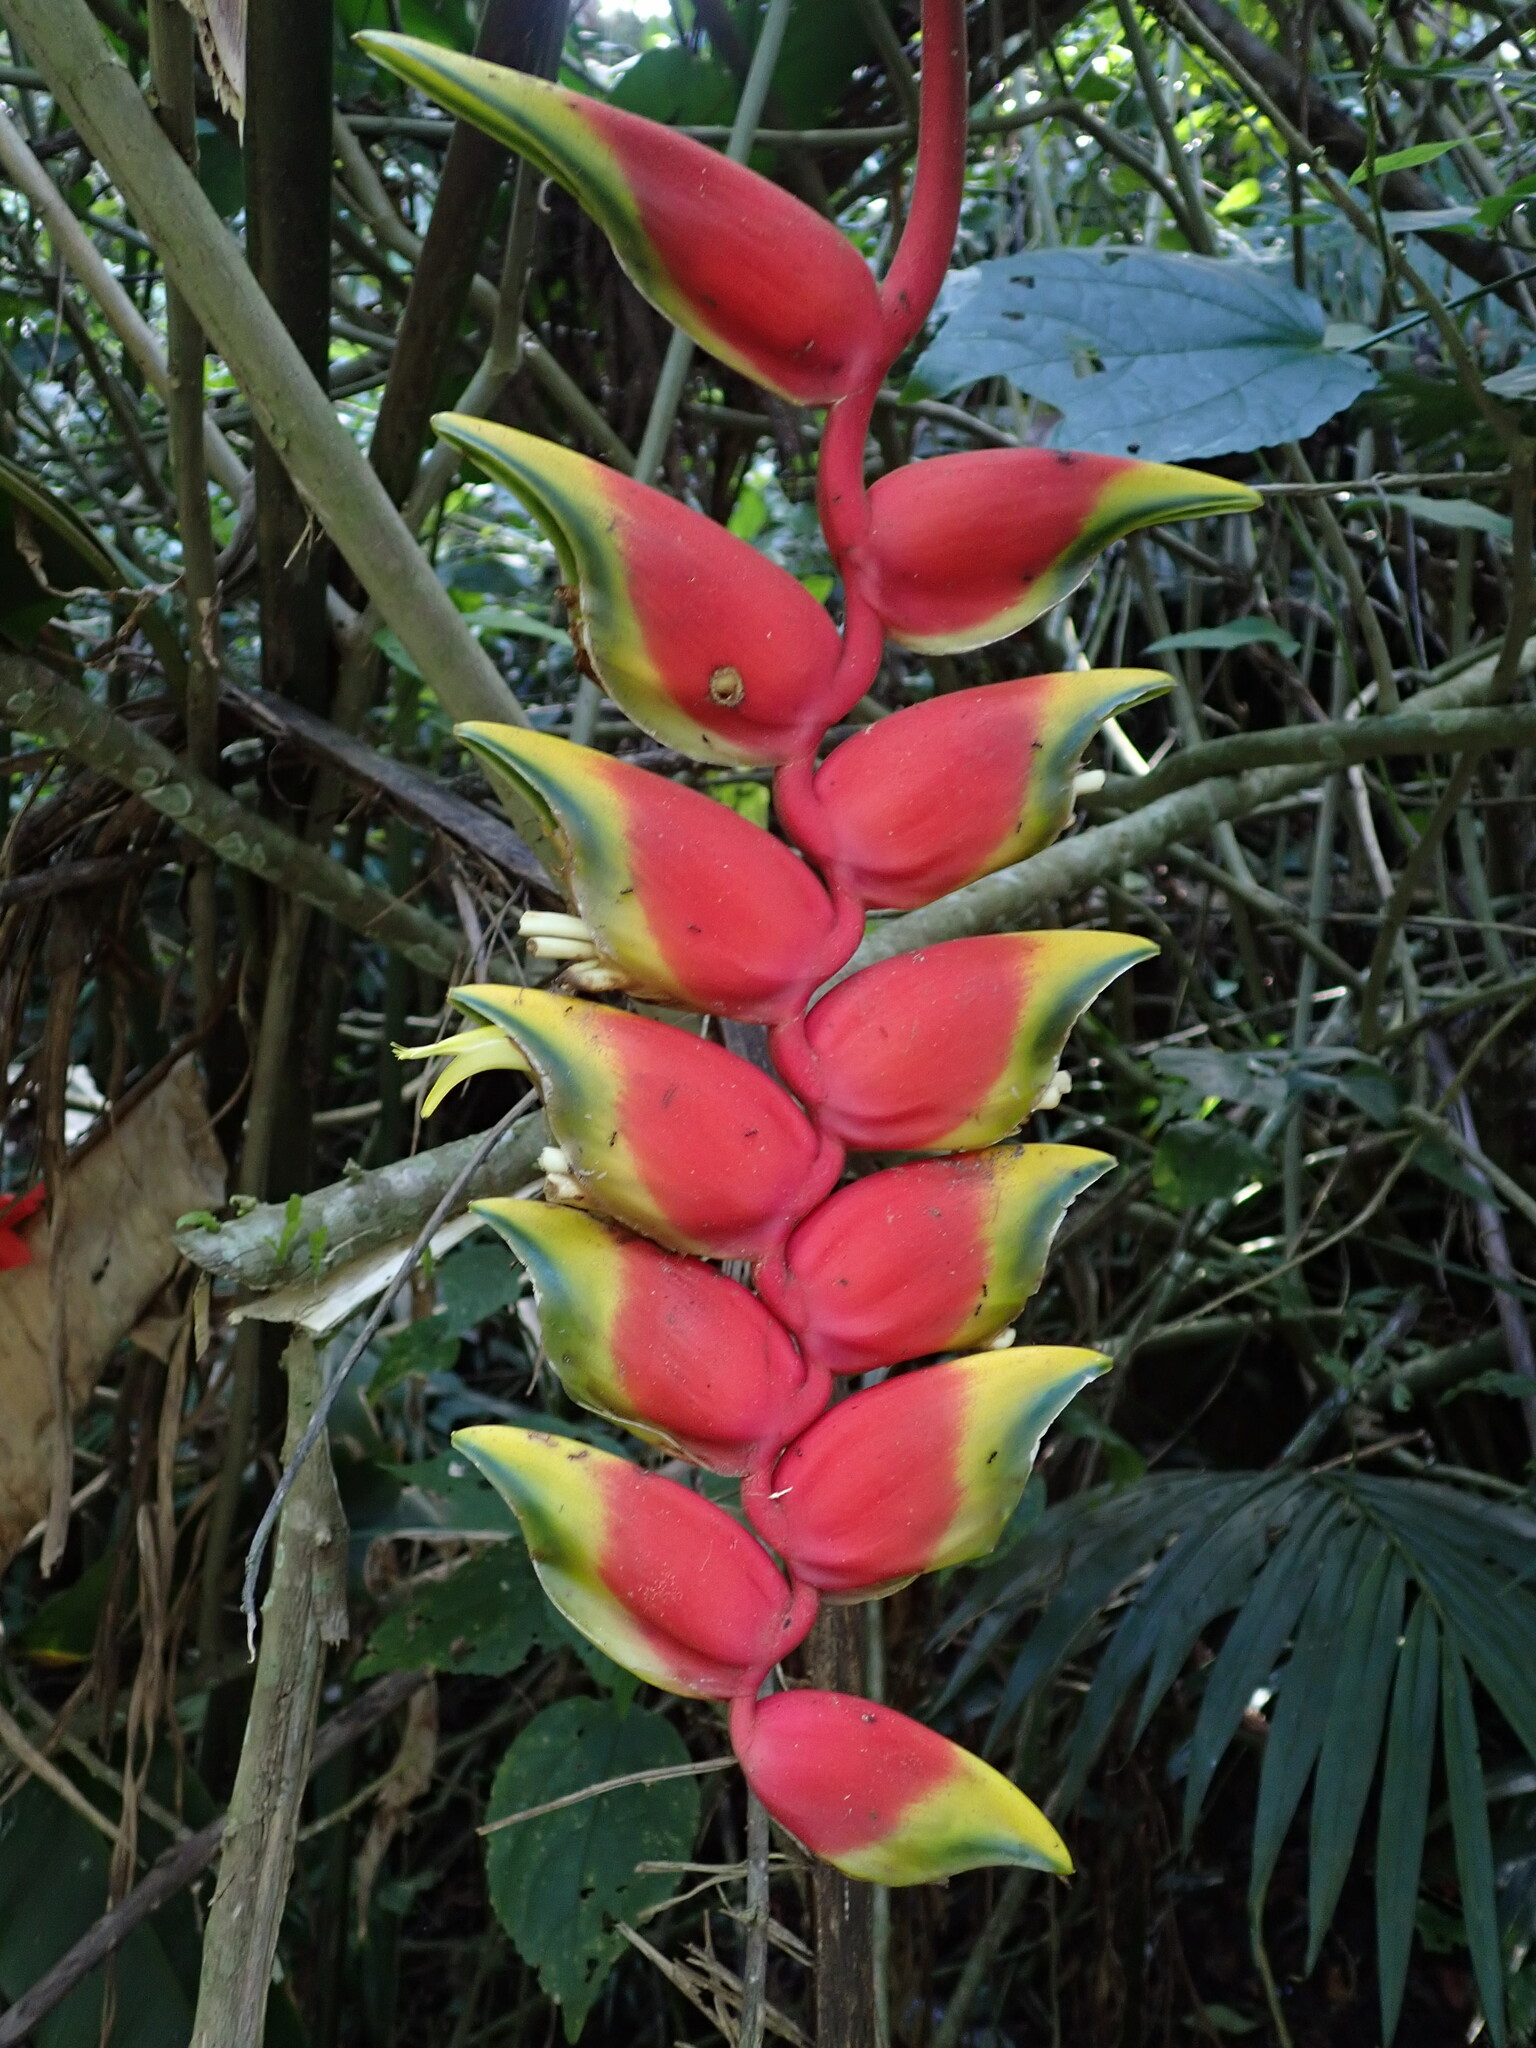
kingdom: Plantae
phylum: Tracheophyta
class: Liliopsida
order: Zingiberales
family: Heliconiaceae
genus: Heliconia
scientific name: Heliconia rostrata
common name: False bird of paradise
